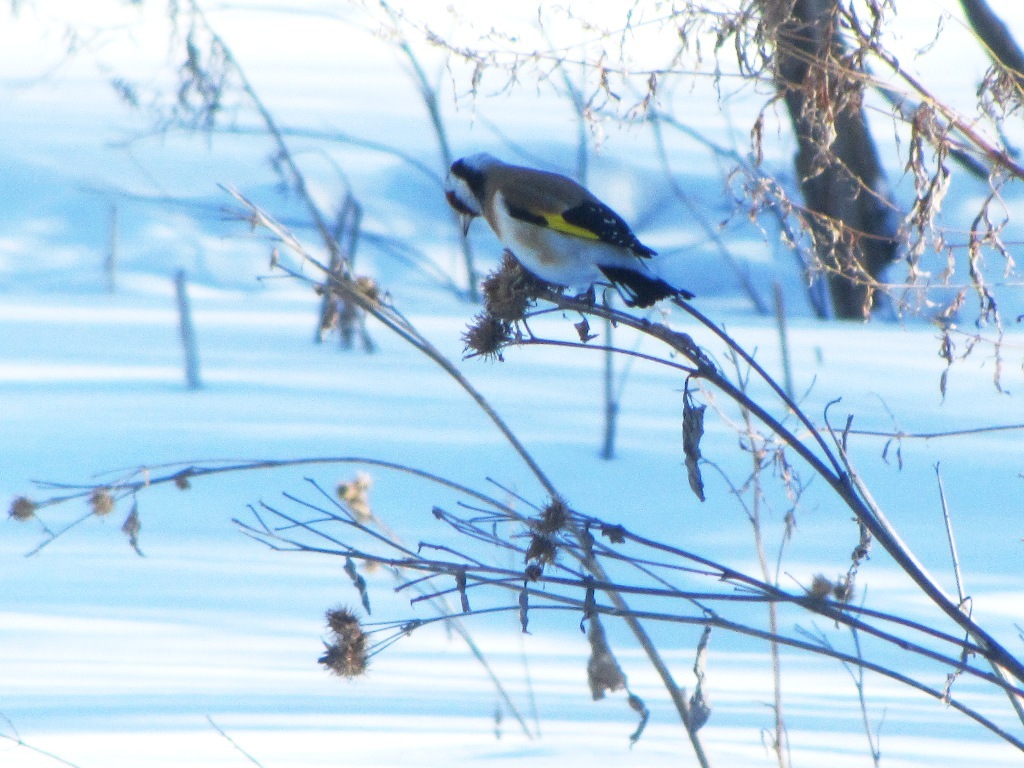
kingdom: Animalia
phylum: Chordata
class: Aves
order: Passeriformes
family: Fringillidae
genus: Carduelis
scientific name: Carduelis carduelis
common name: European goldfinch
